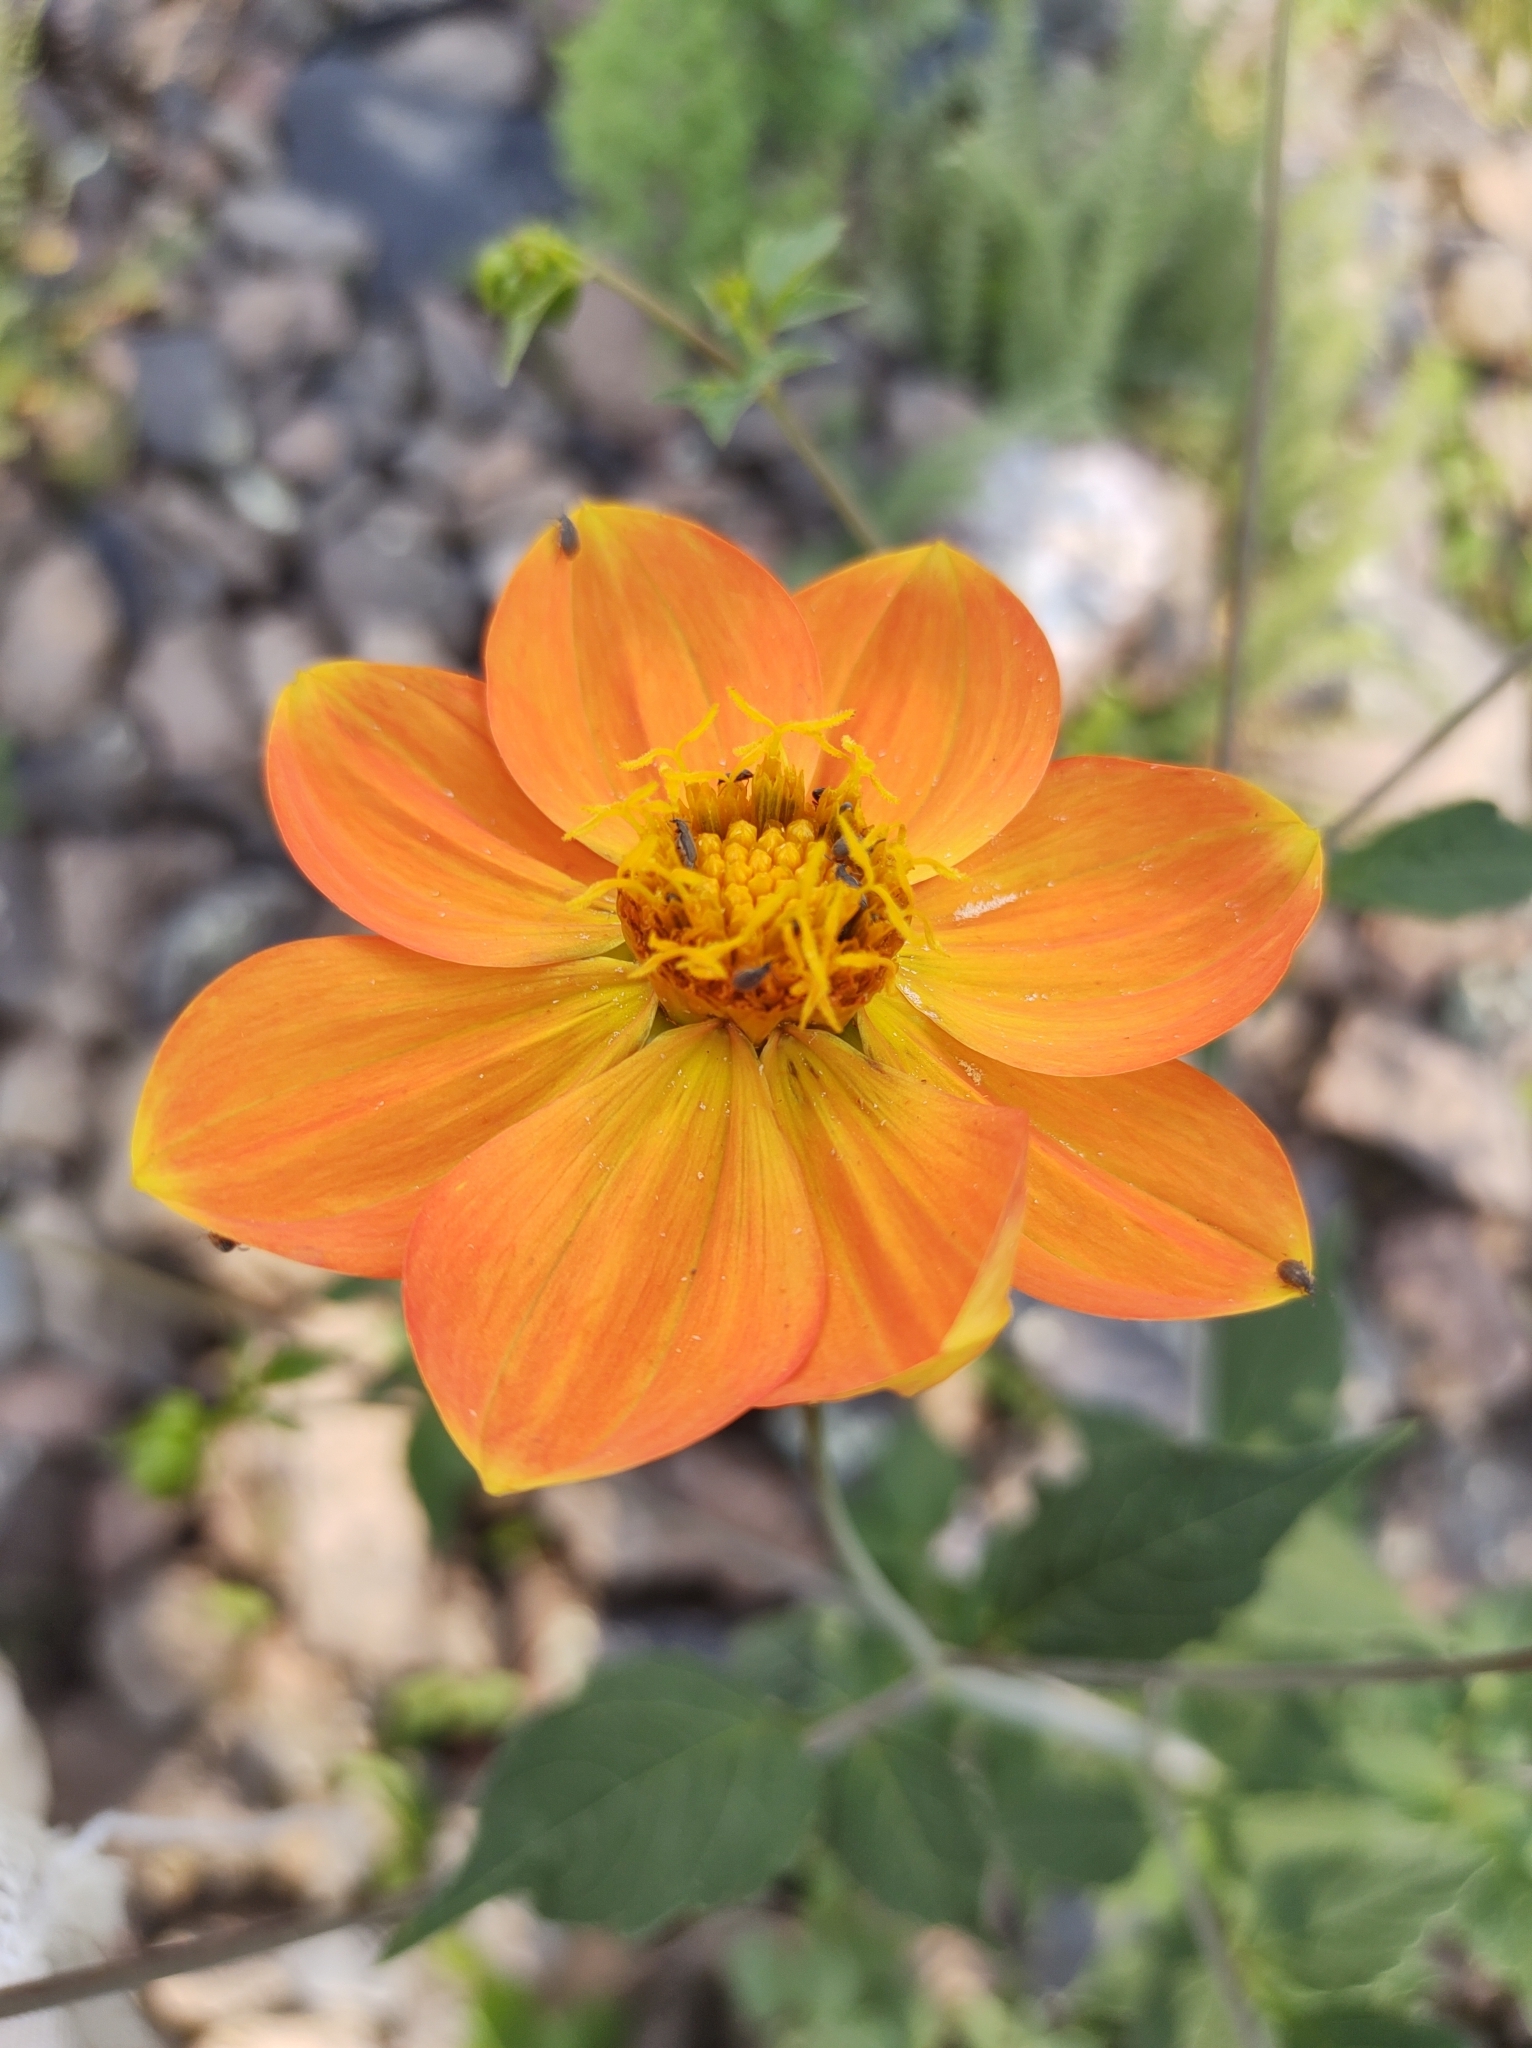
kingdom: Plantae
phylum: Tracheophyta
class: Magnoliopsida
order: Asterales
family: Asteraceae
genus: Dahlia
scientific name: Dahlia coccinea
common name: Red dahlia
